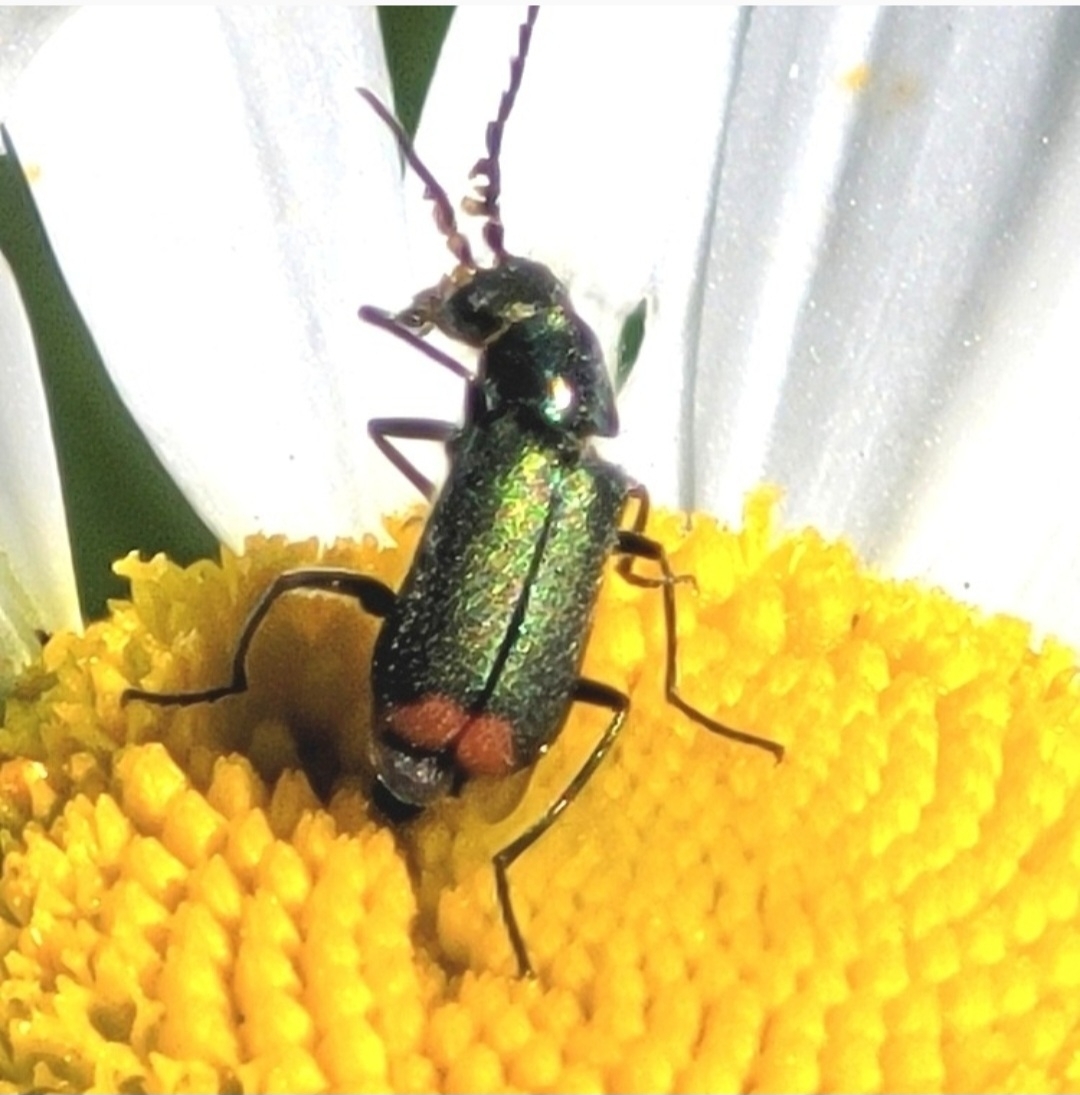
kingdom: Animalia
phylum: Arthropoda
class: Insecta
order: Coleoptera
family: Melyridae
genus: Malachius
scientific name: Malachius bipustulatus
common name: Malachite beetle
